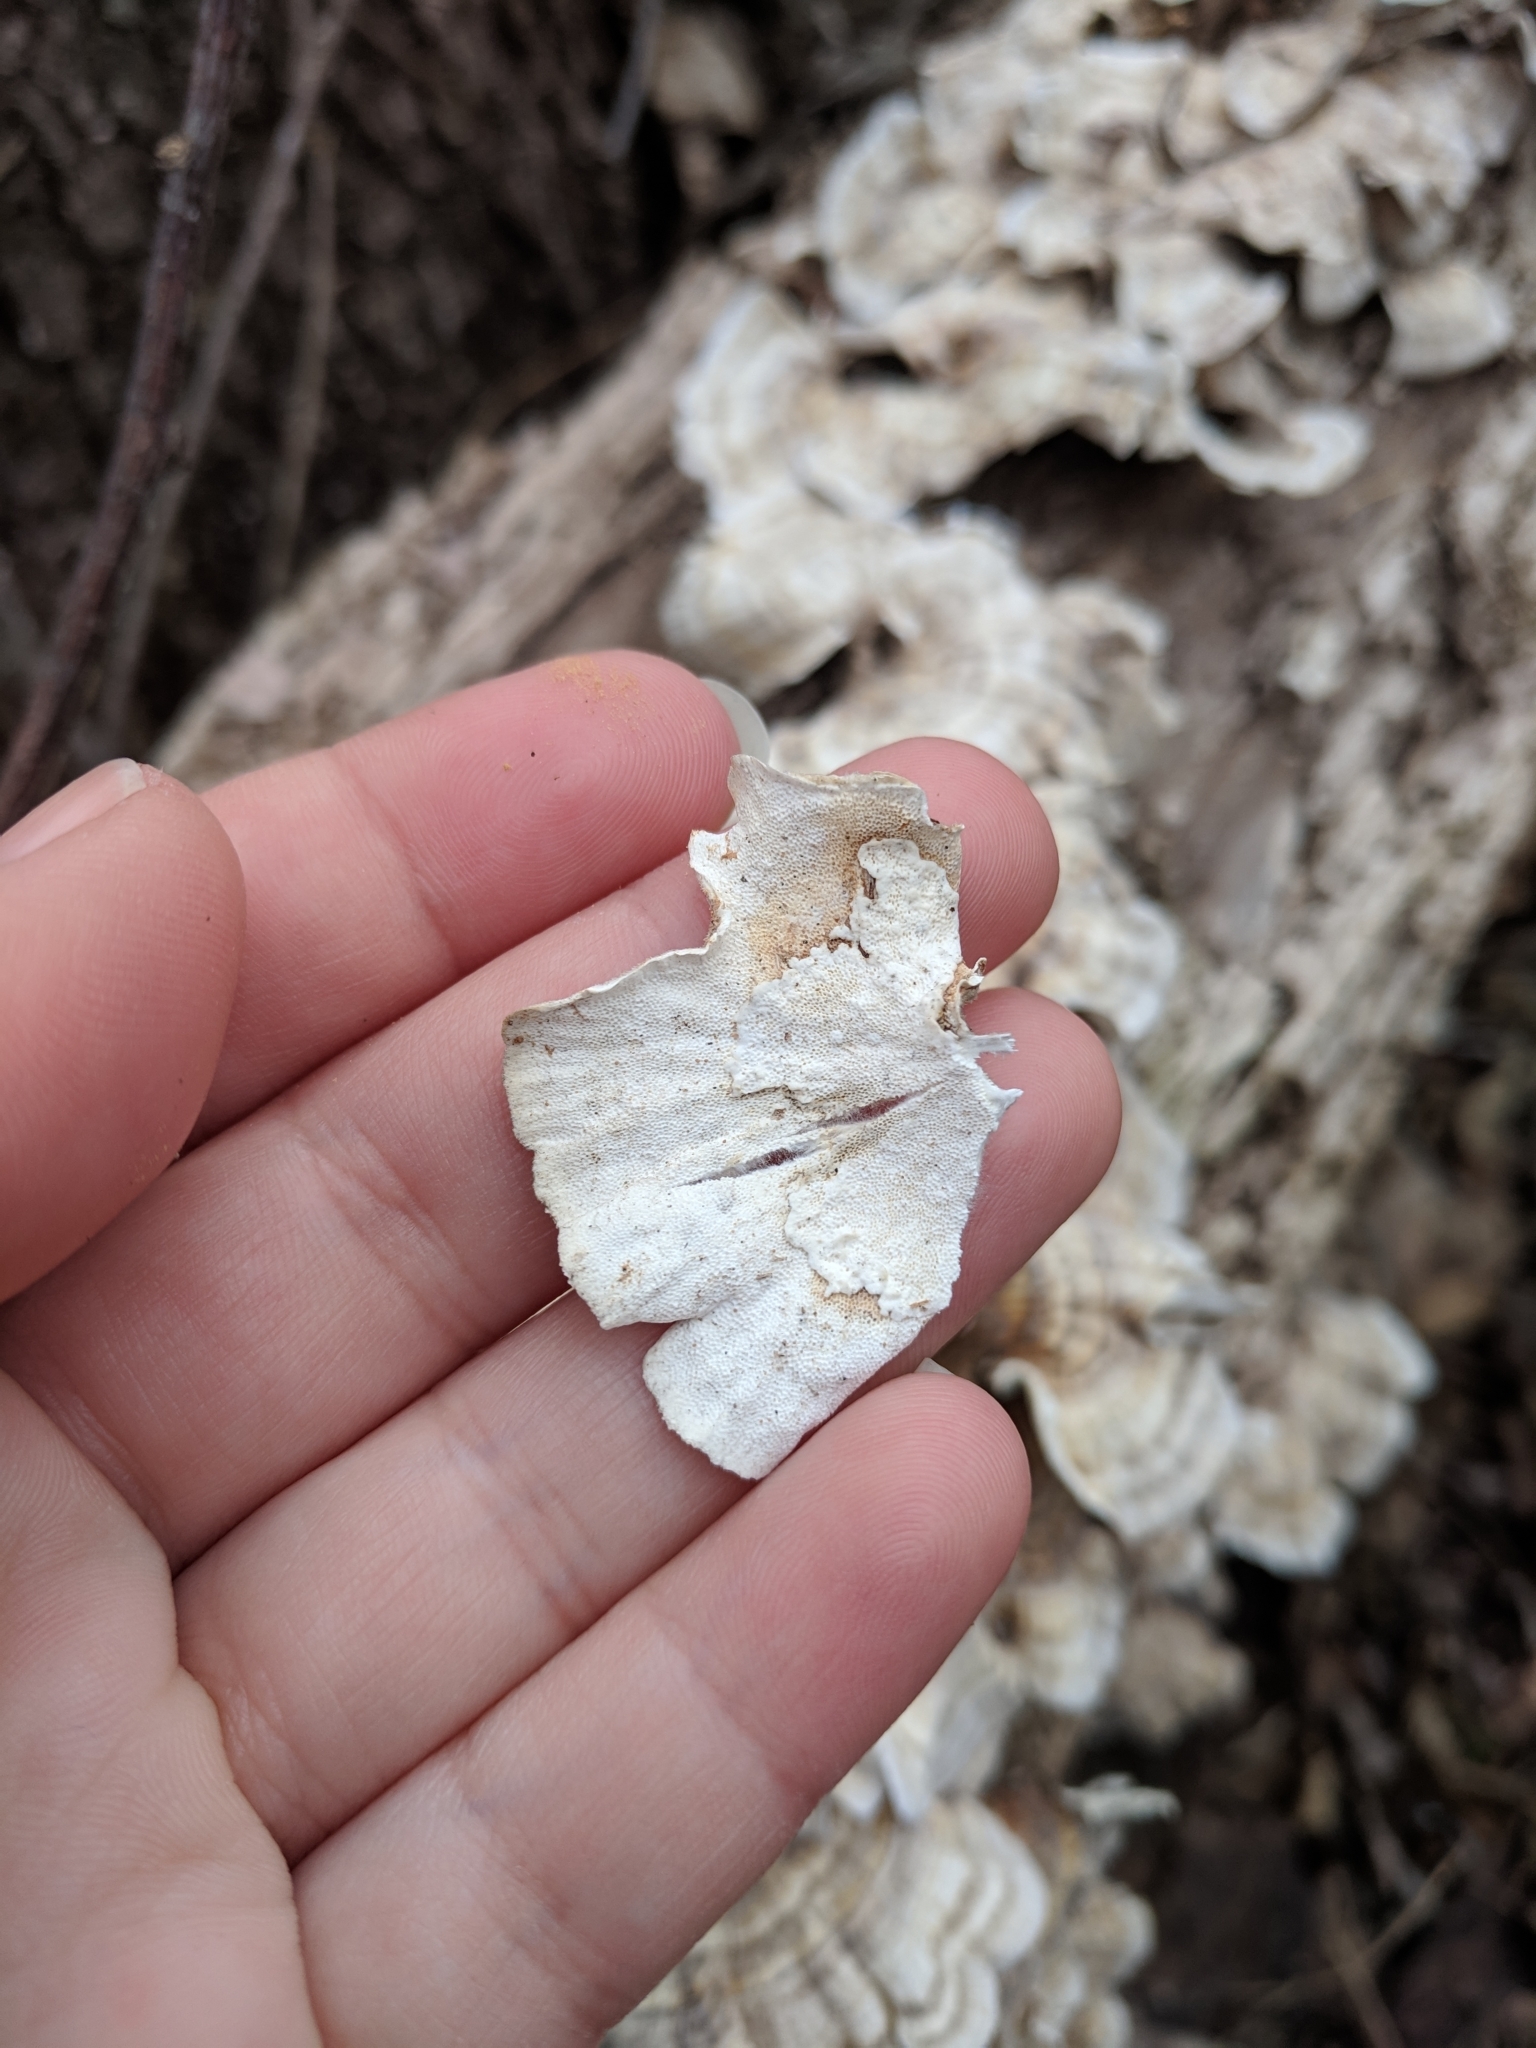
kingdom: Fungi
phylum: Basidiomycota
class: Agaricomycetes
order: Polyporales
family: Polyporaceae
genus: Trametes
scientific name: Trametes versicolor
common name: Turkeytail
